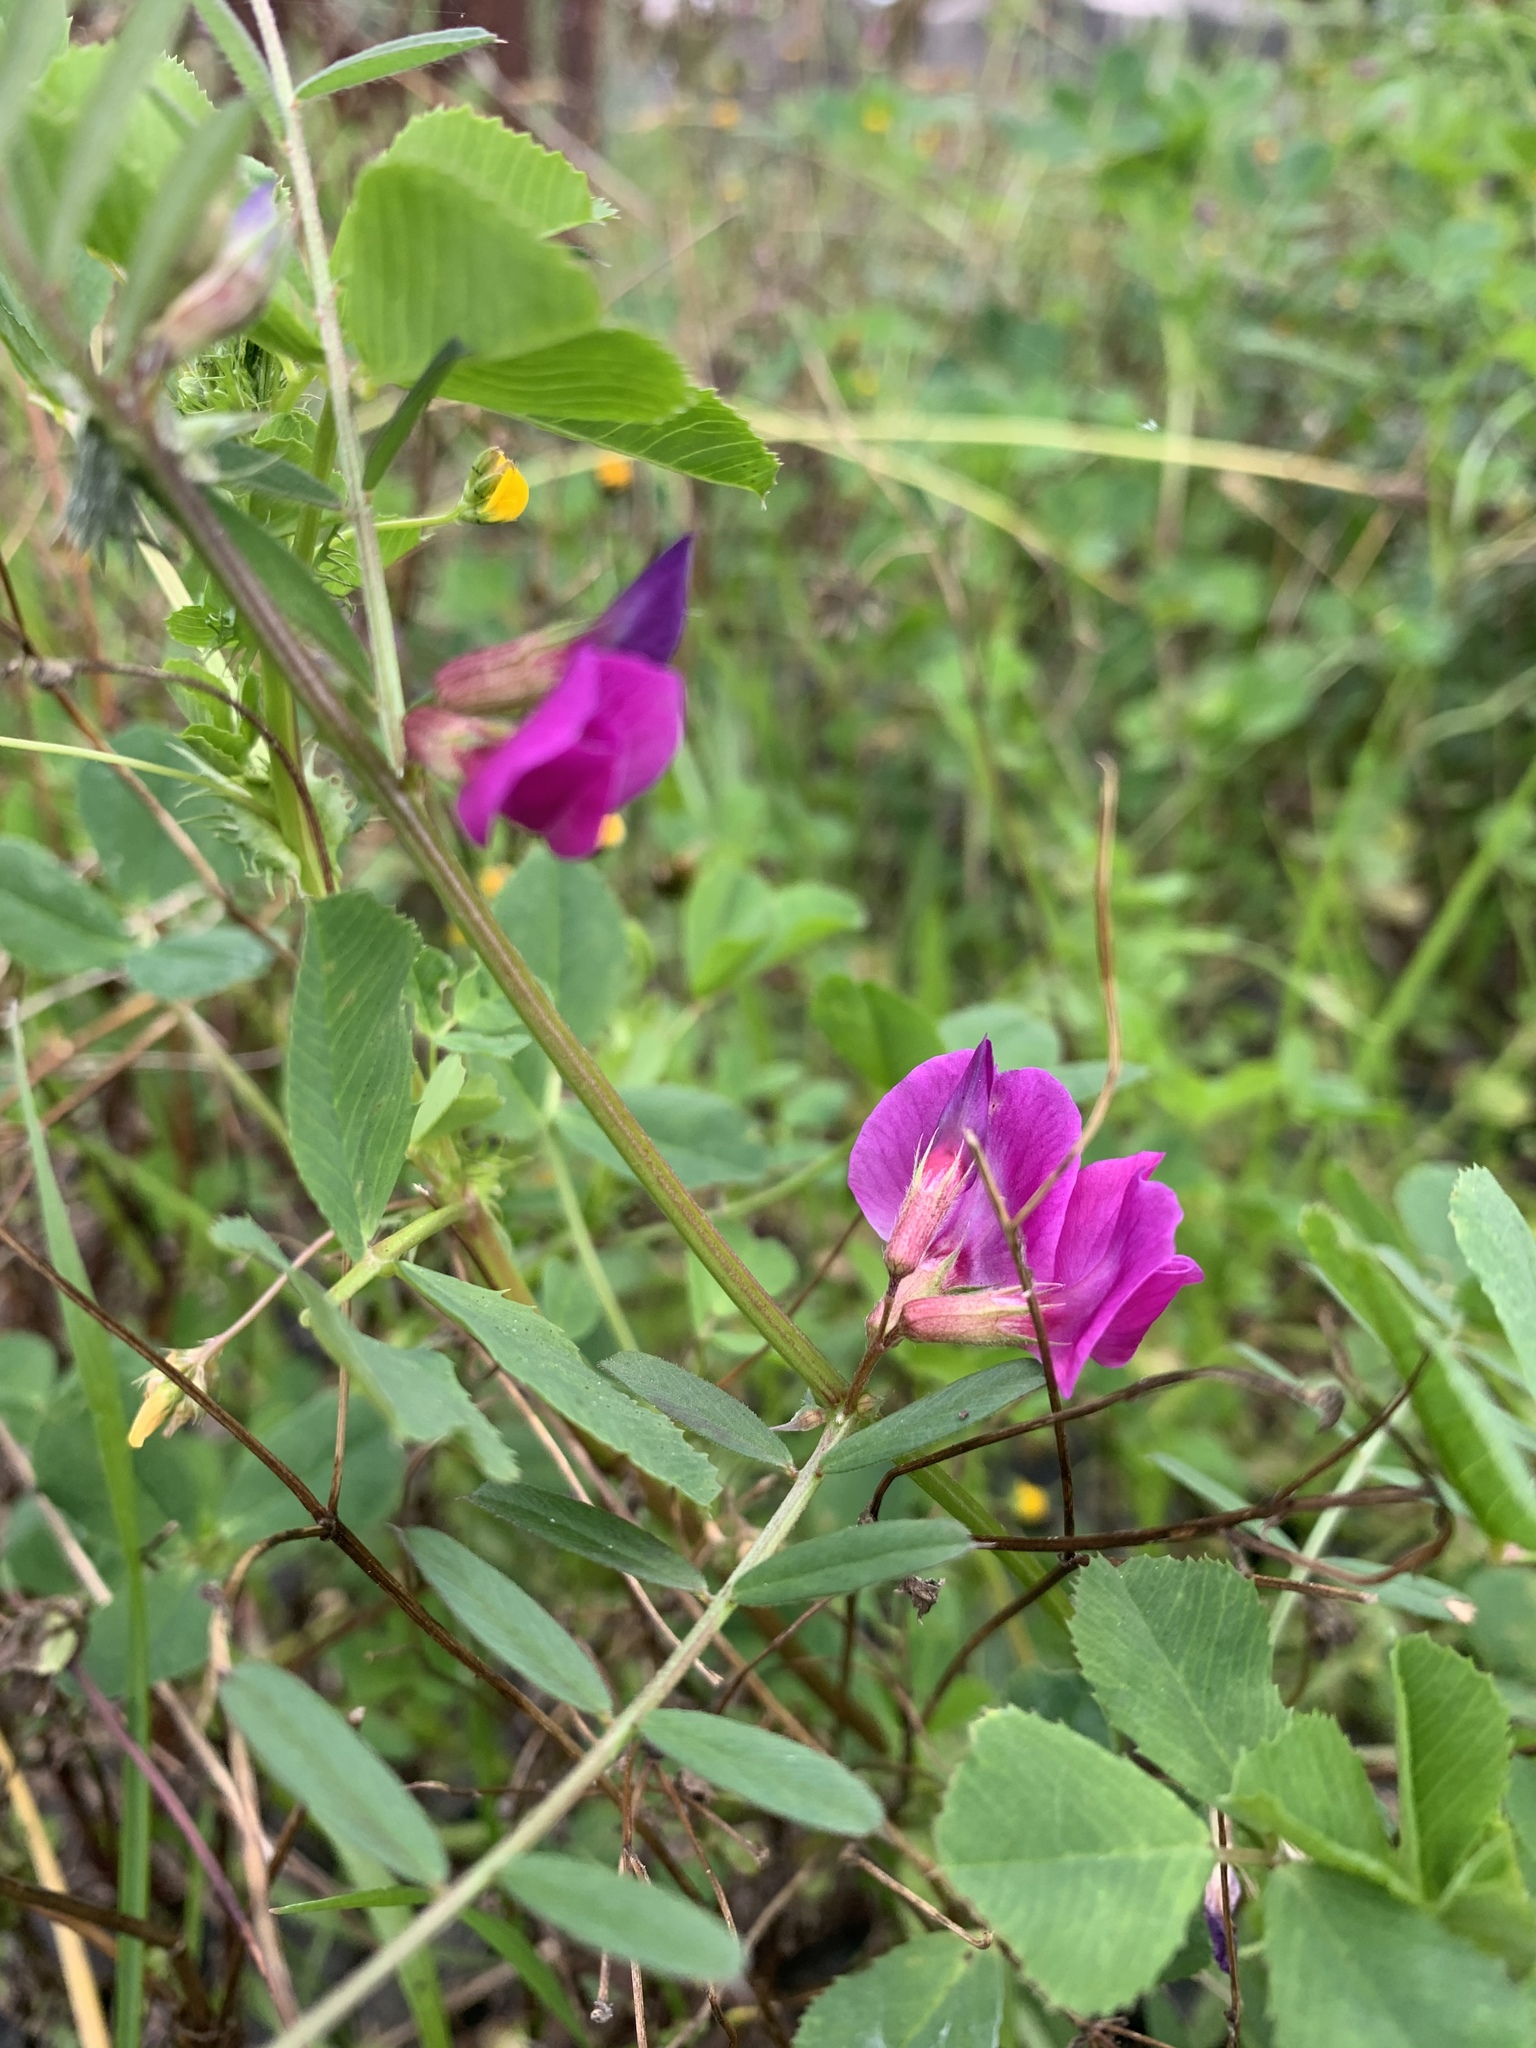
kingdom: Plantae
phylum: Tracheophyta
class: Magnoliopsida
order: Fabales
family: Fabaceae
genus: Vicia
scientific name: Vicia sativa
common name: Garden vetch
